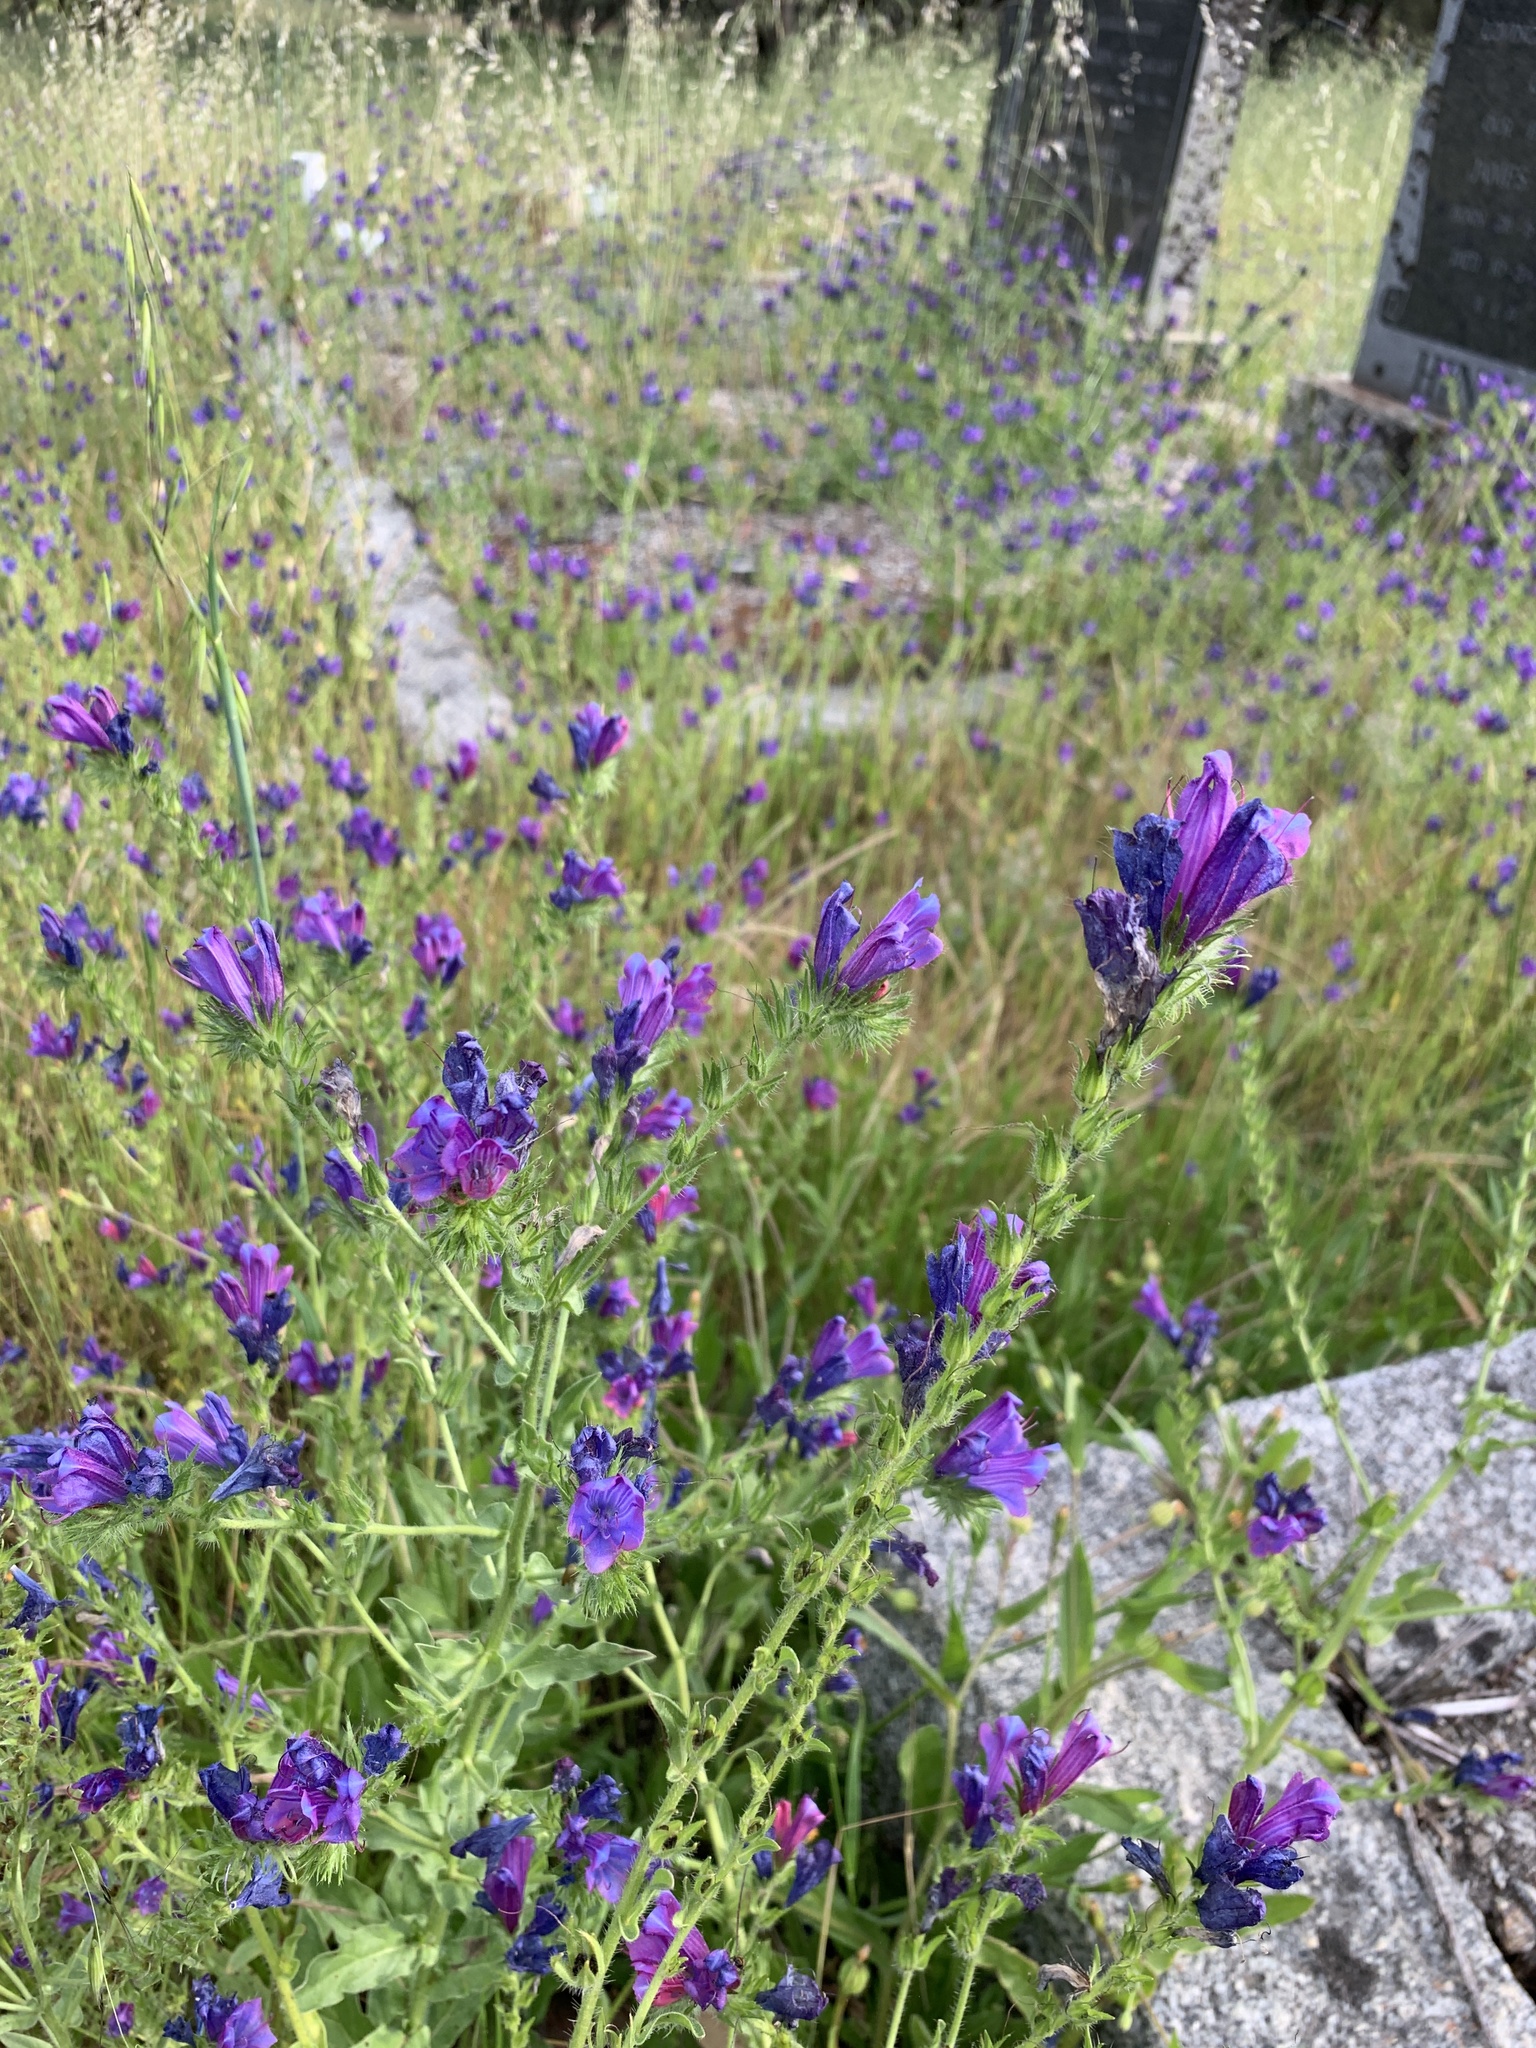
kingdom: Plantae
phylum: Tracheophyta
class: Magnoliopsida
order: Boraginales
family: Boraginaceae
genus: Echium
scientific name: Echium plantagineum
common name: Purple viper's-bugloss
